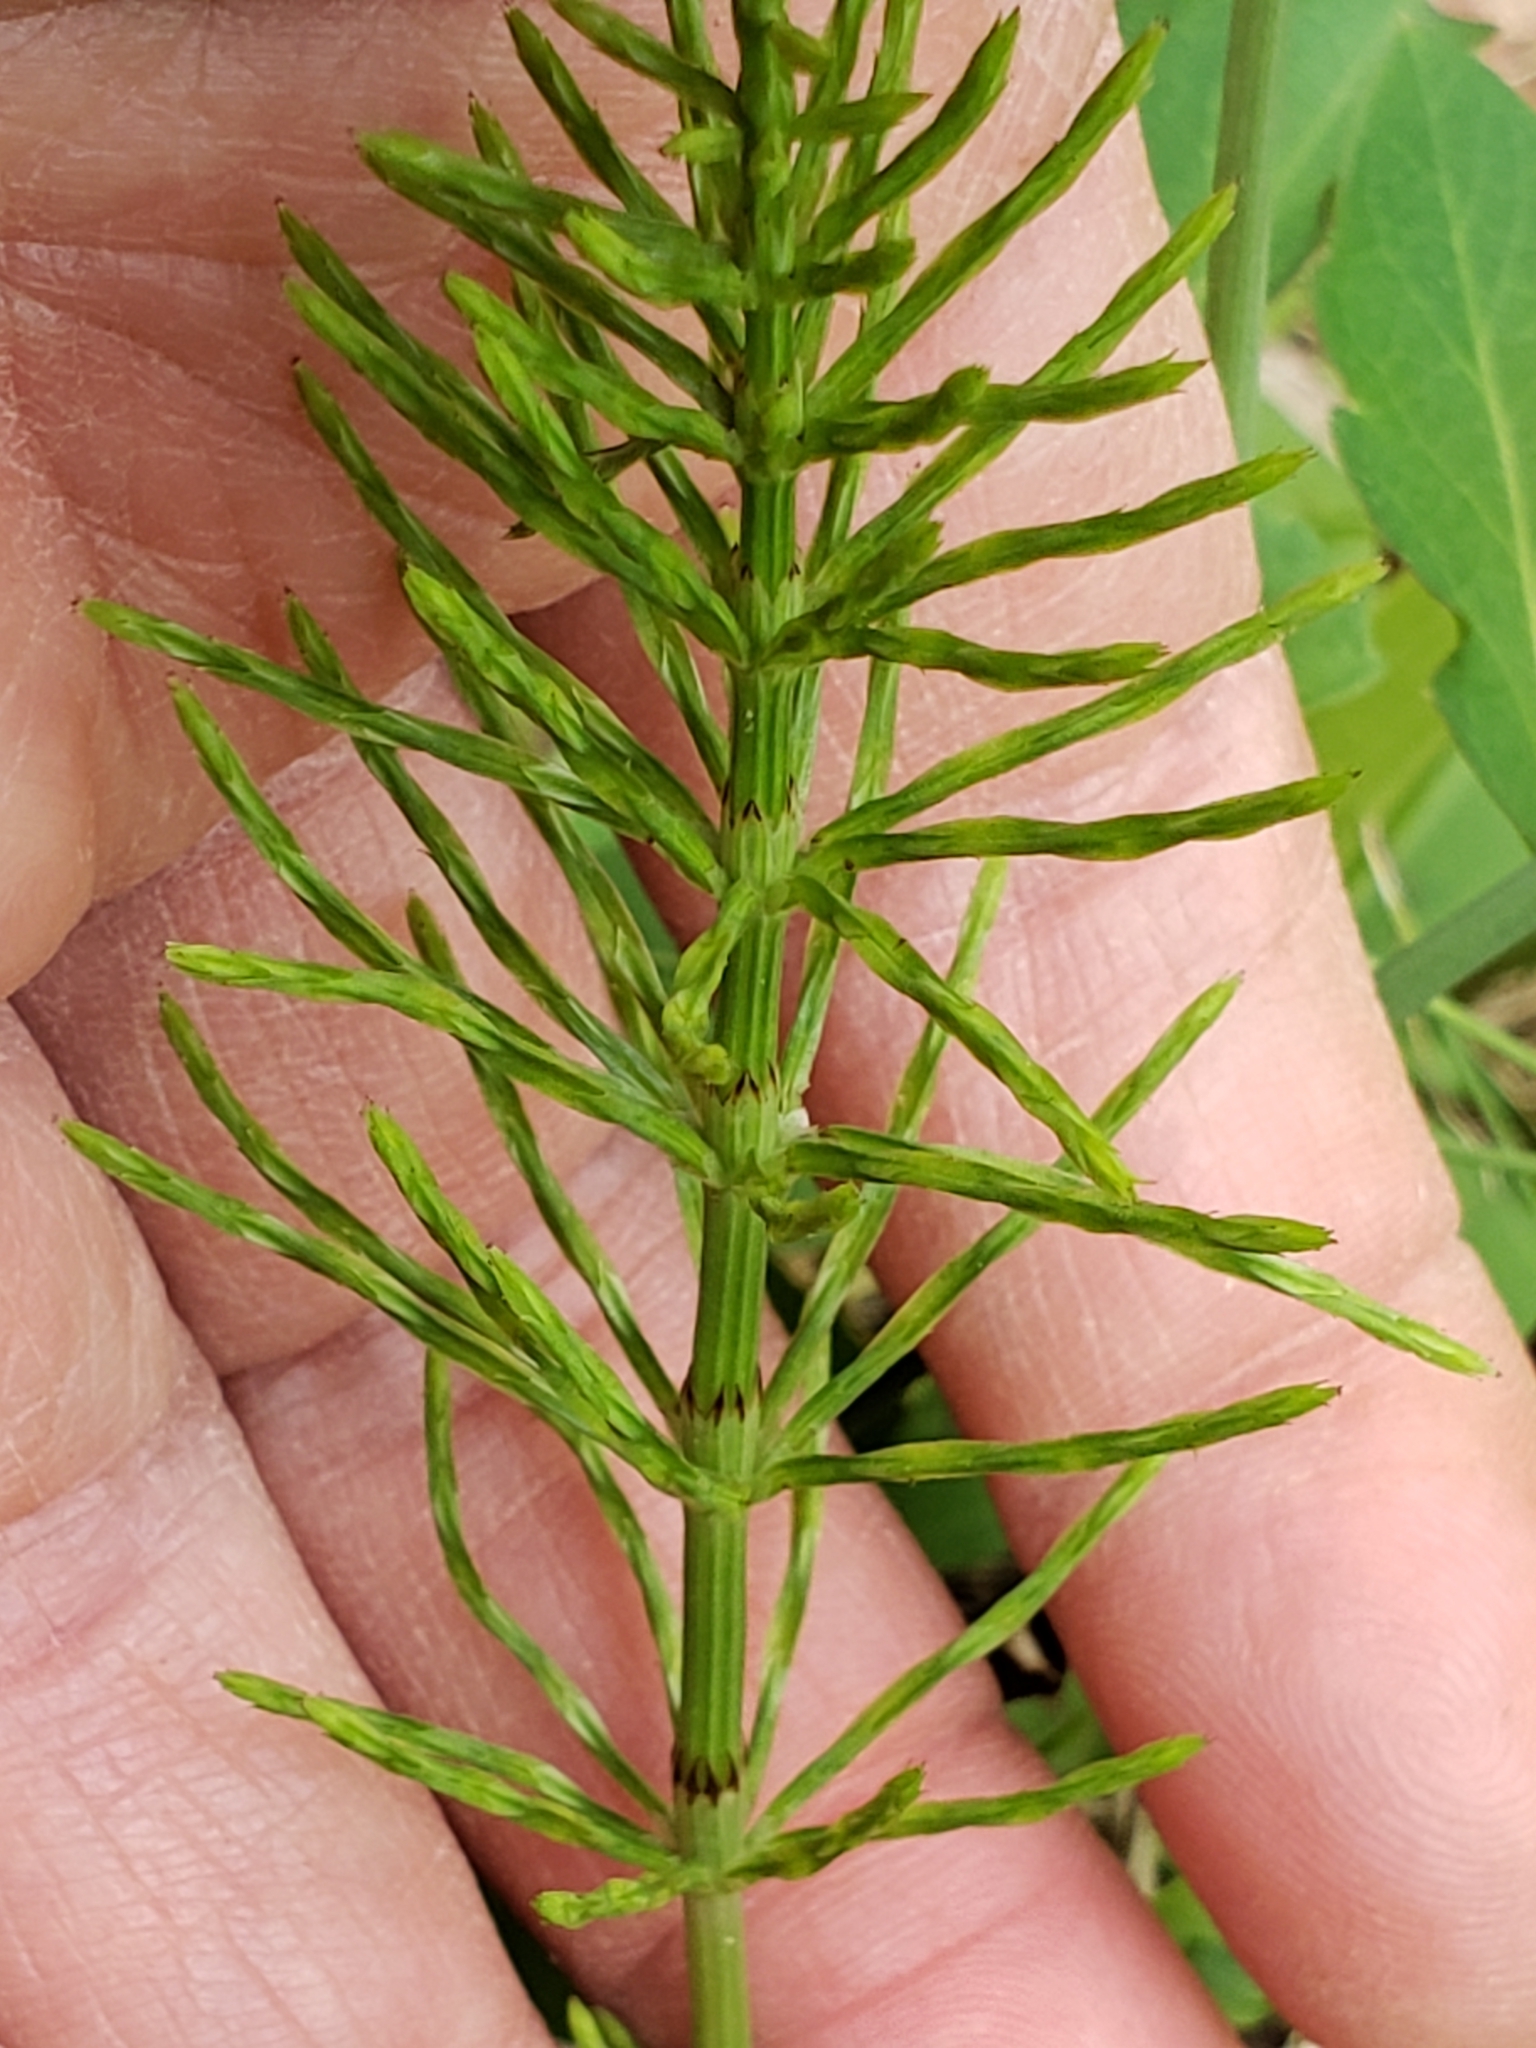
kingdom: Plantae
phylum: Tracheophyta
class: Polypodiopsida
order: Equisetales
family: Equisetaceae
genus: Equisetum
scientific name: Equisetum arvense
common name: Field horsetail
